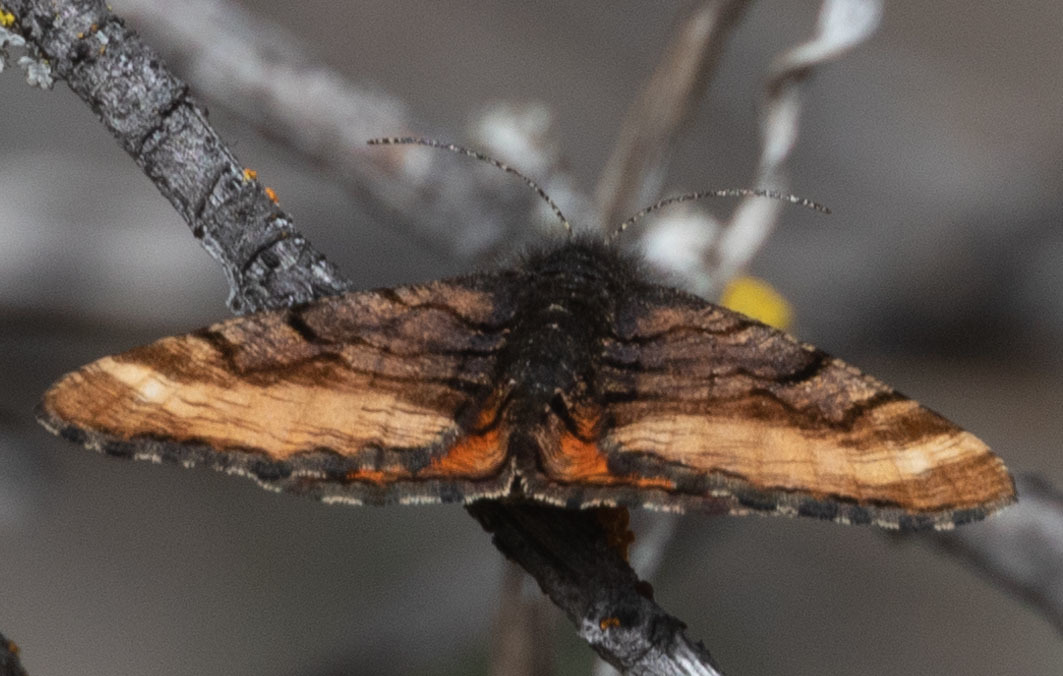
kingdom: Animalia
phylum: Arthropoda
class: Insecta
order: Lepidoptera
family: Geometridae
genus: Dasyfidonia
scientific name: Dasyfidonia avuncularia
